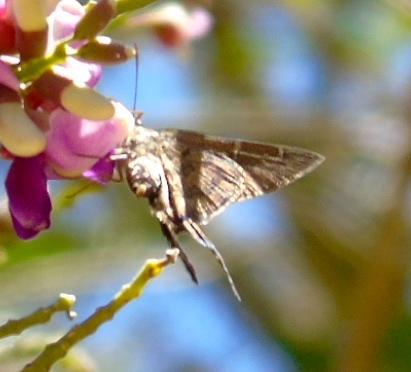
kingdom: Animalia
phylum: Arthropoda
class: Insecta
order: Lepidoptera
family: Hesperiidae
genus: Thorybes
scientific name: Thorybes
